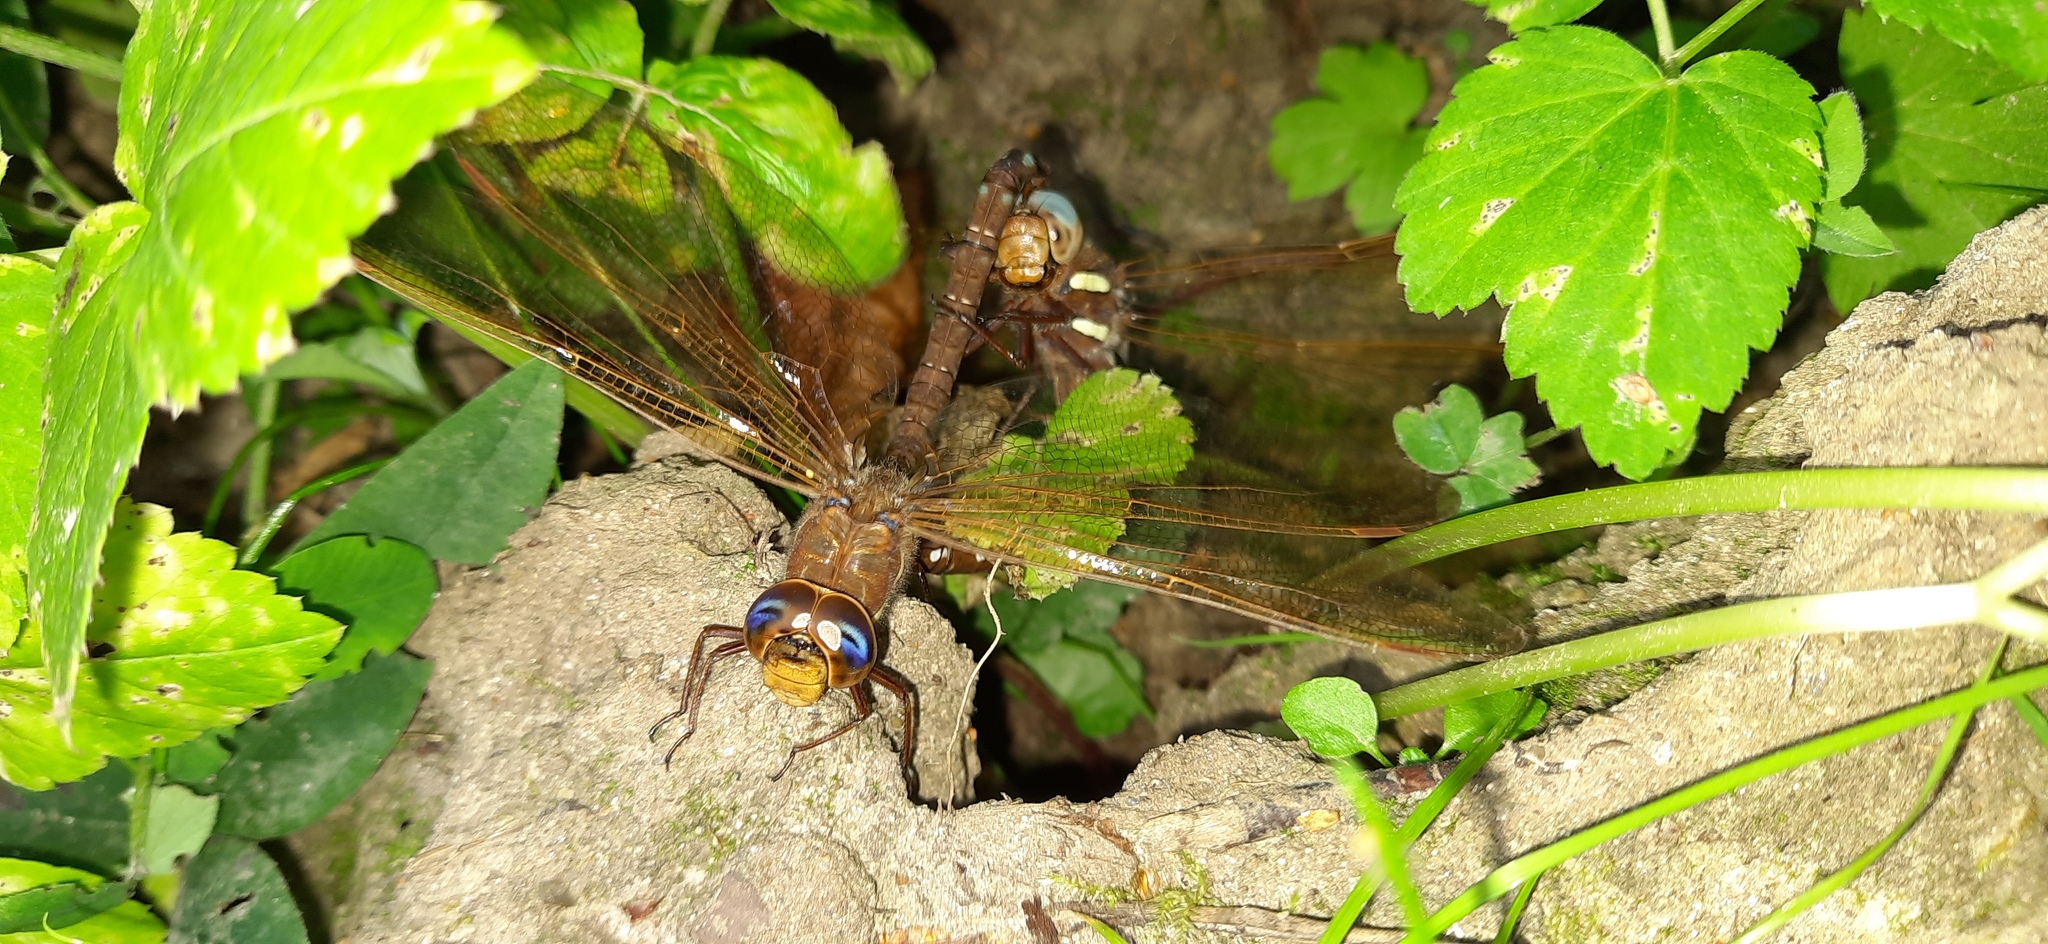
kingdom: Animalia
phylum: Arthropoda
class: Insecta
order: Odonata
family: Aeshnidae
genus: Aeshna
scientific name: Aeshna grandis
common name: Brown hawker
